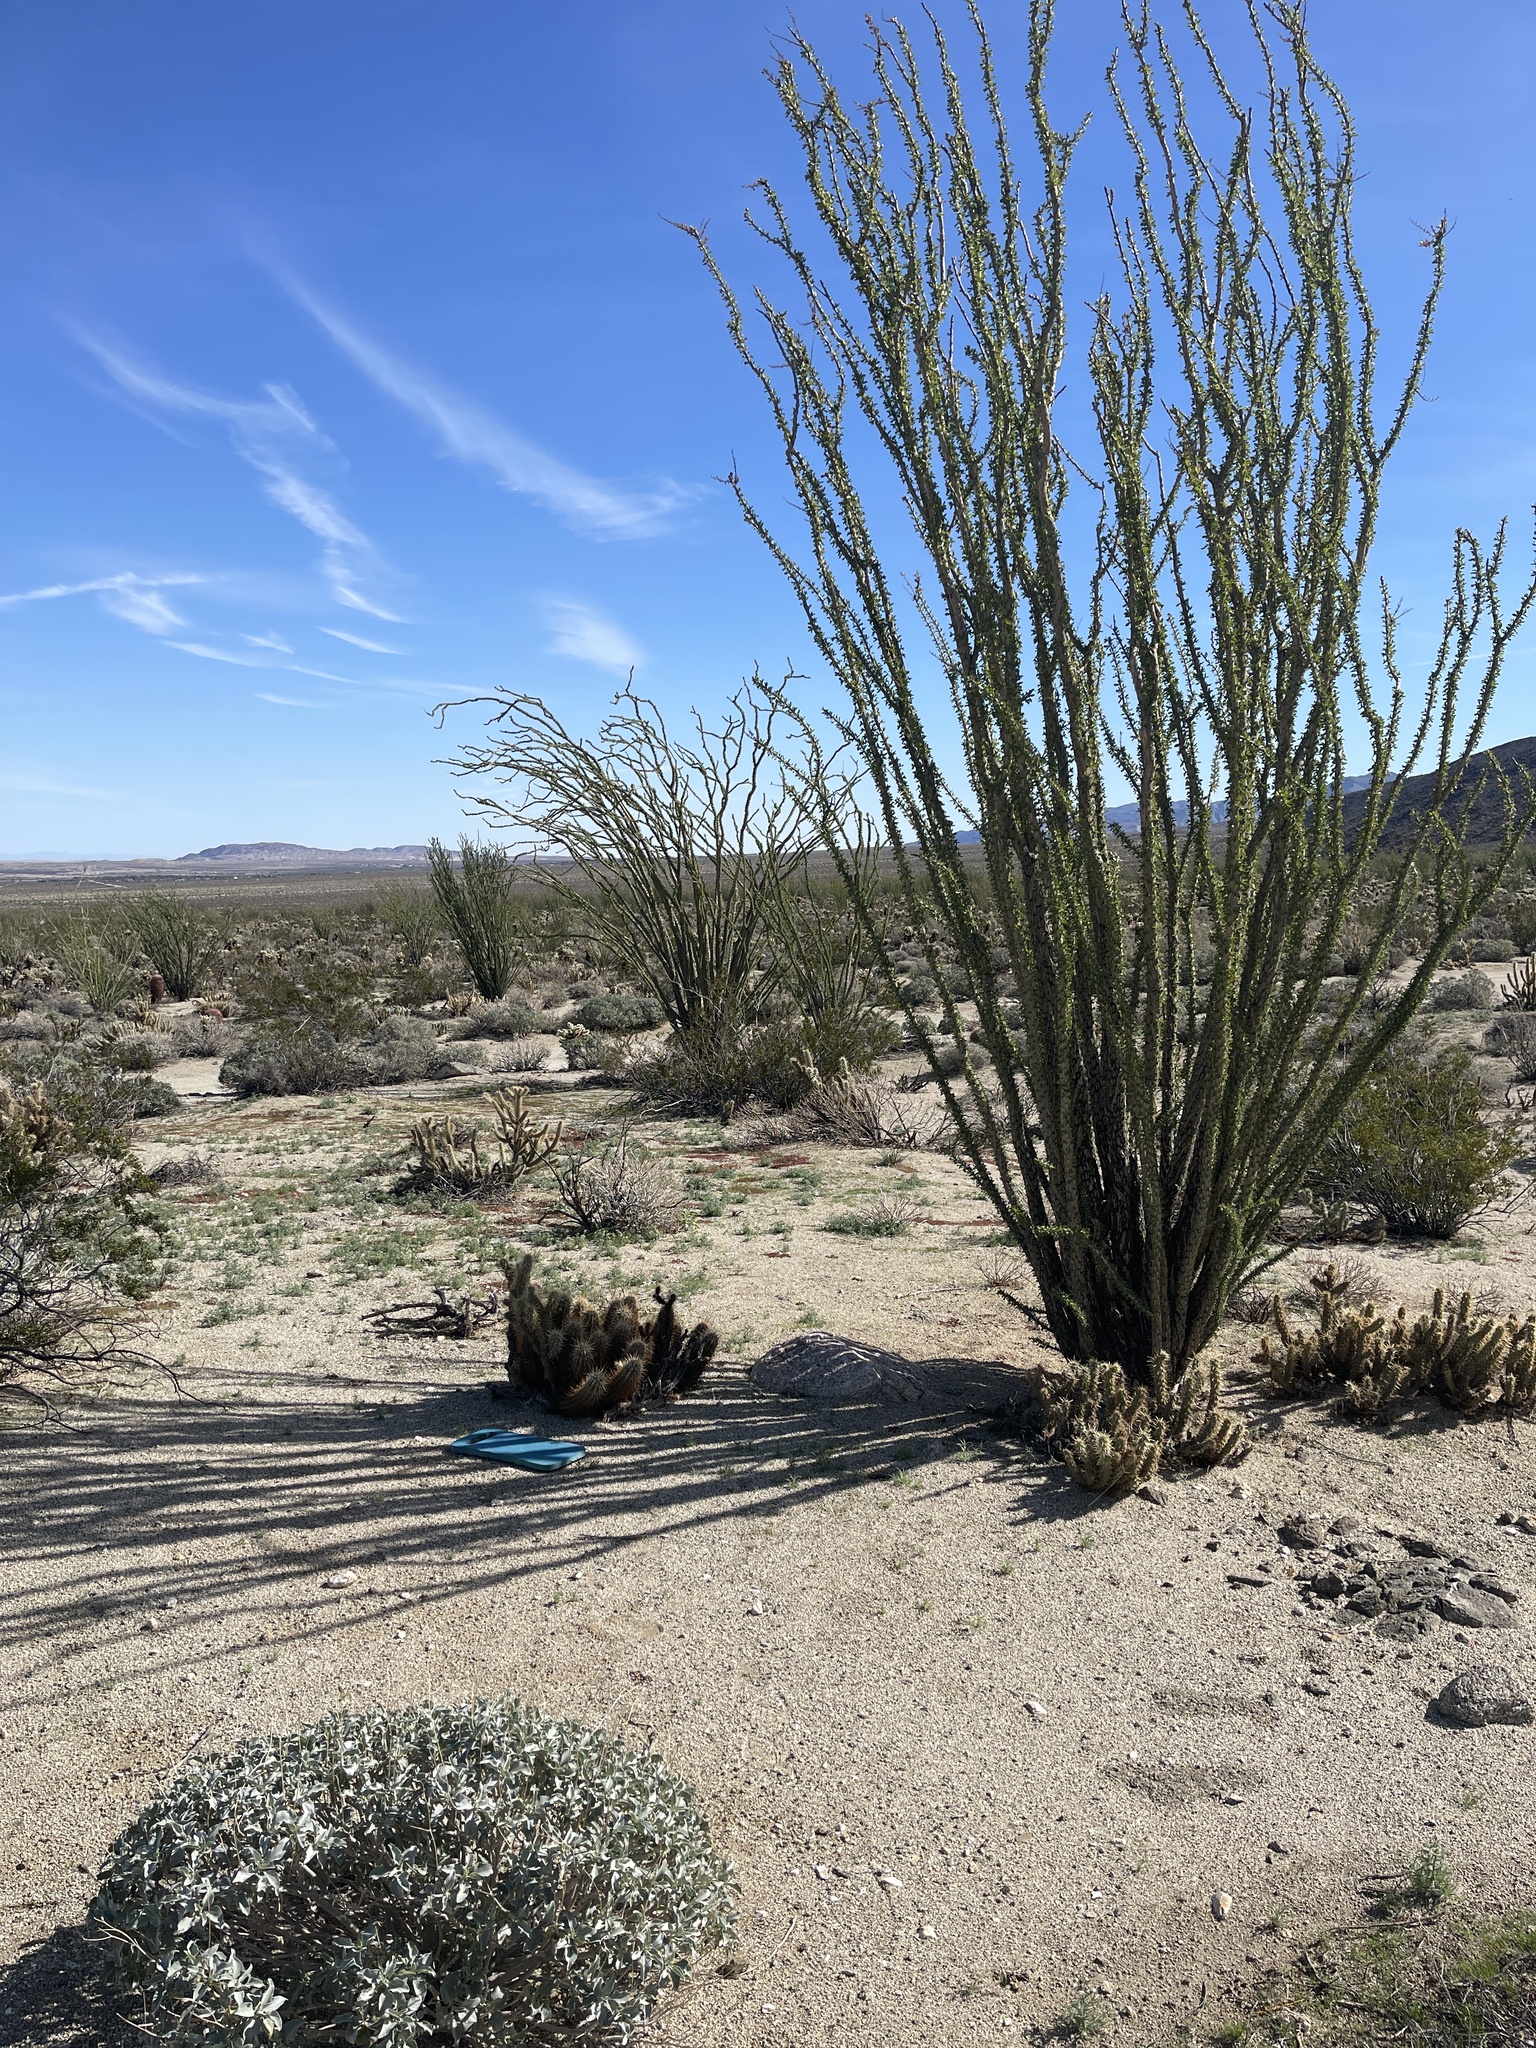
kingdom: Plantae
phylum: Tracheophyta
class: Magnoliopsida
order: Caryophyllales
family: Cactaceae
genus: Echinocereus
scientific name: Echinocereus engelmannii
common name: Engelmann's hedgehog cactus
